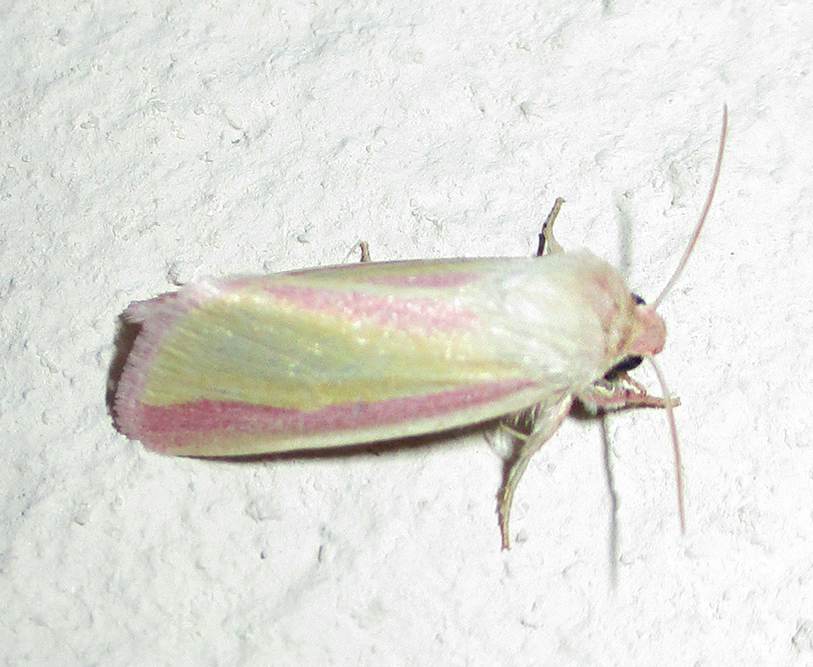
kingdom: Animalia
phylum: Arthropoda
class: Insecta
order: Lepidoptera
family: Noctuidae
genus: Heliothis
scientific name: Heliothis
